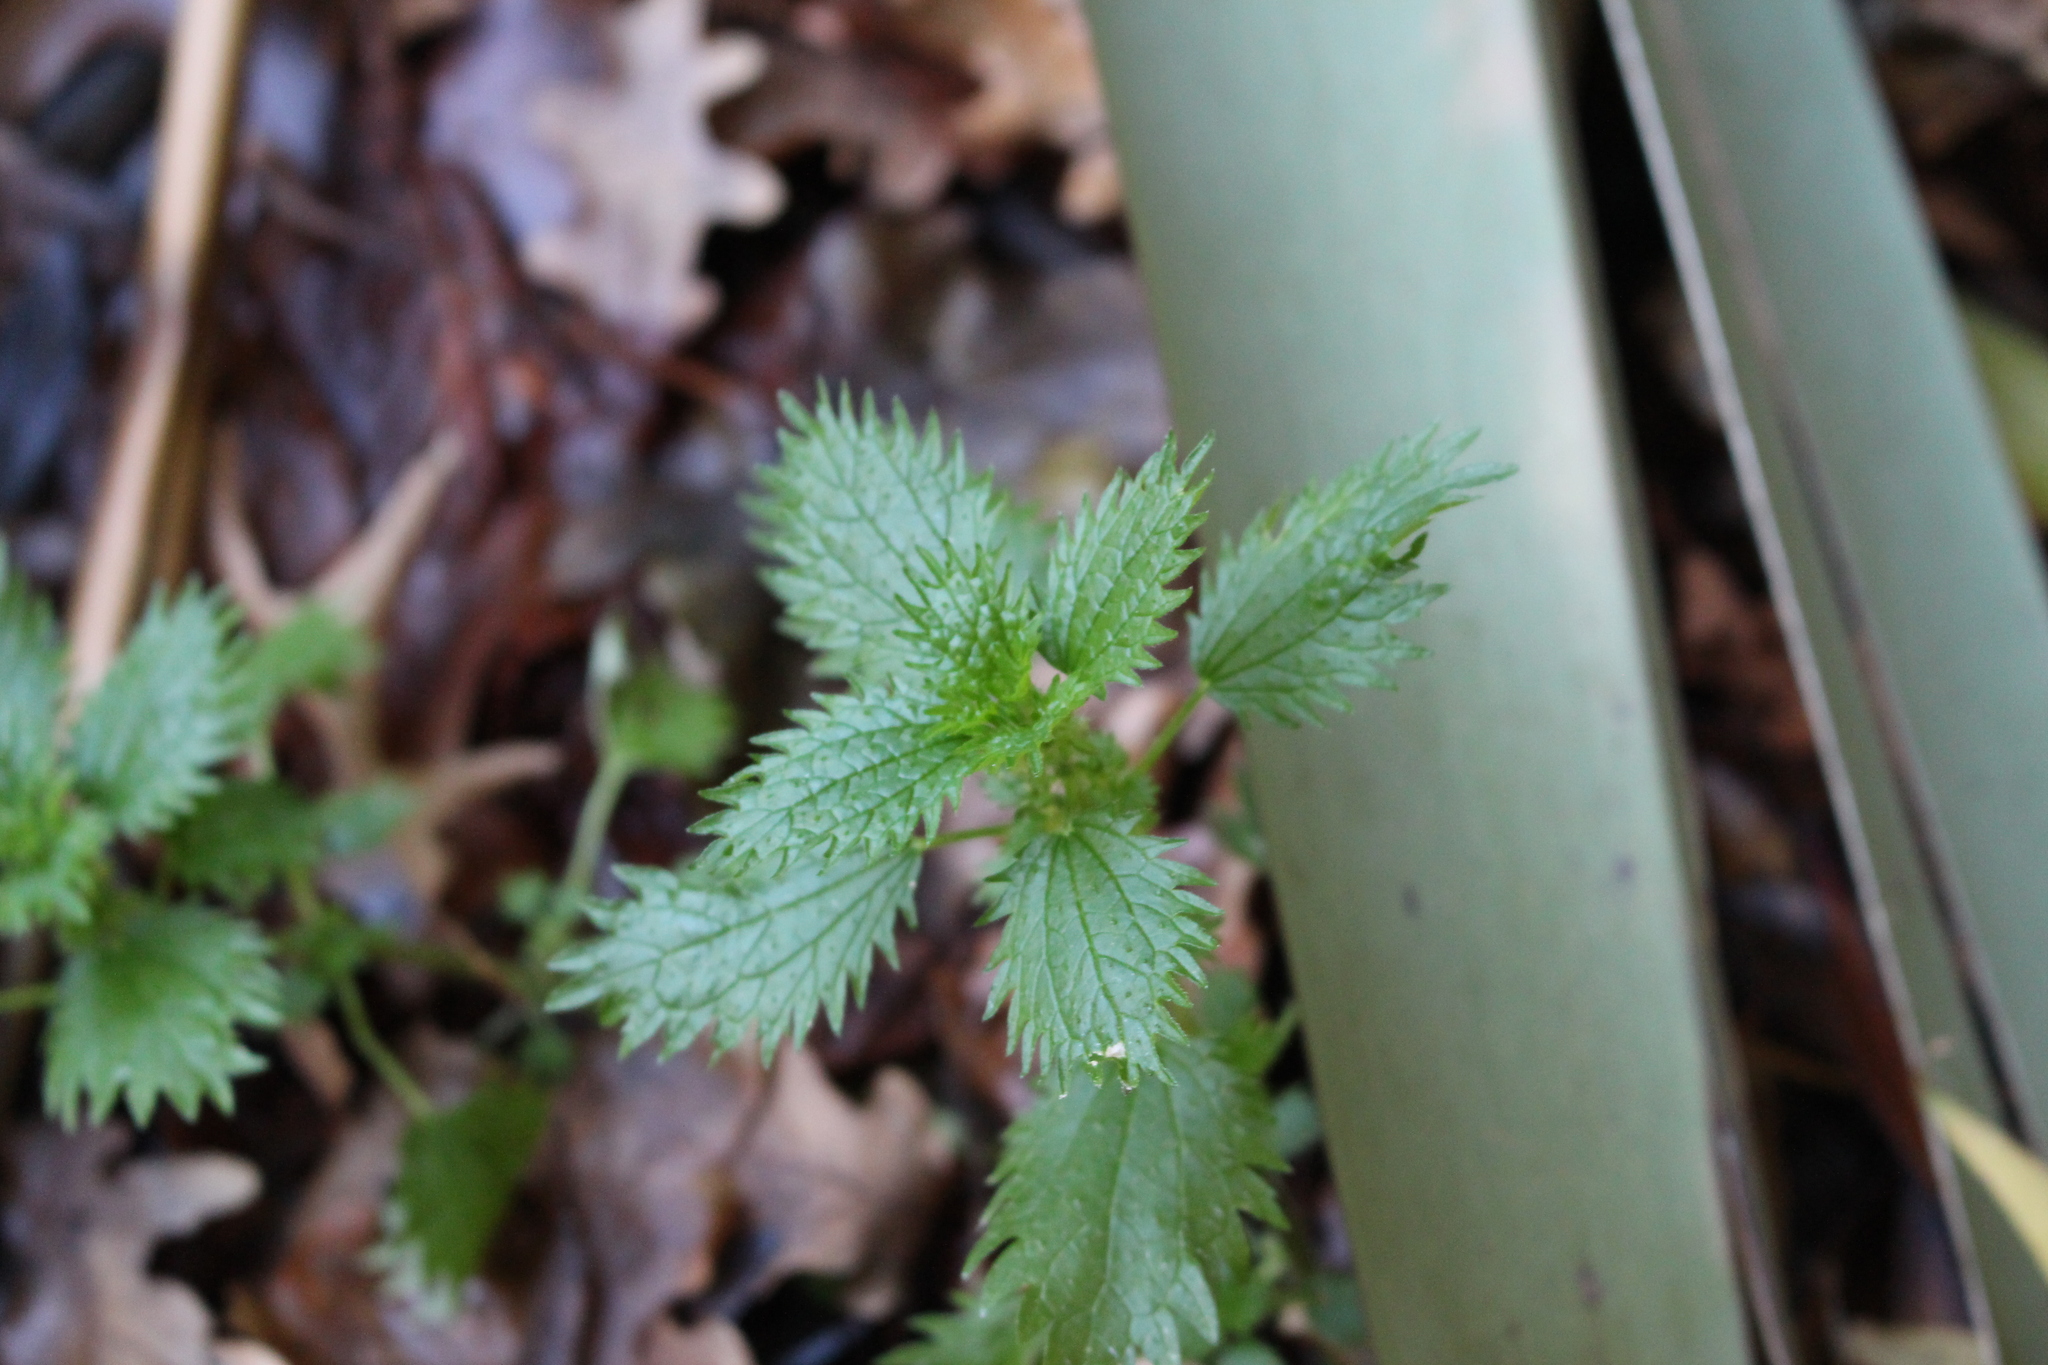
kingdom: Plantae
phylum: Tracheophyta
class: Magnoliopsida
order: Rosales
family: Urticaceae
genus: Urtica
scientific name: Urtica urens
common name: Dwarf nettle
